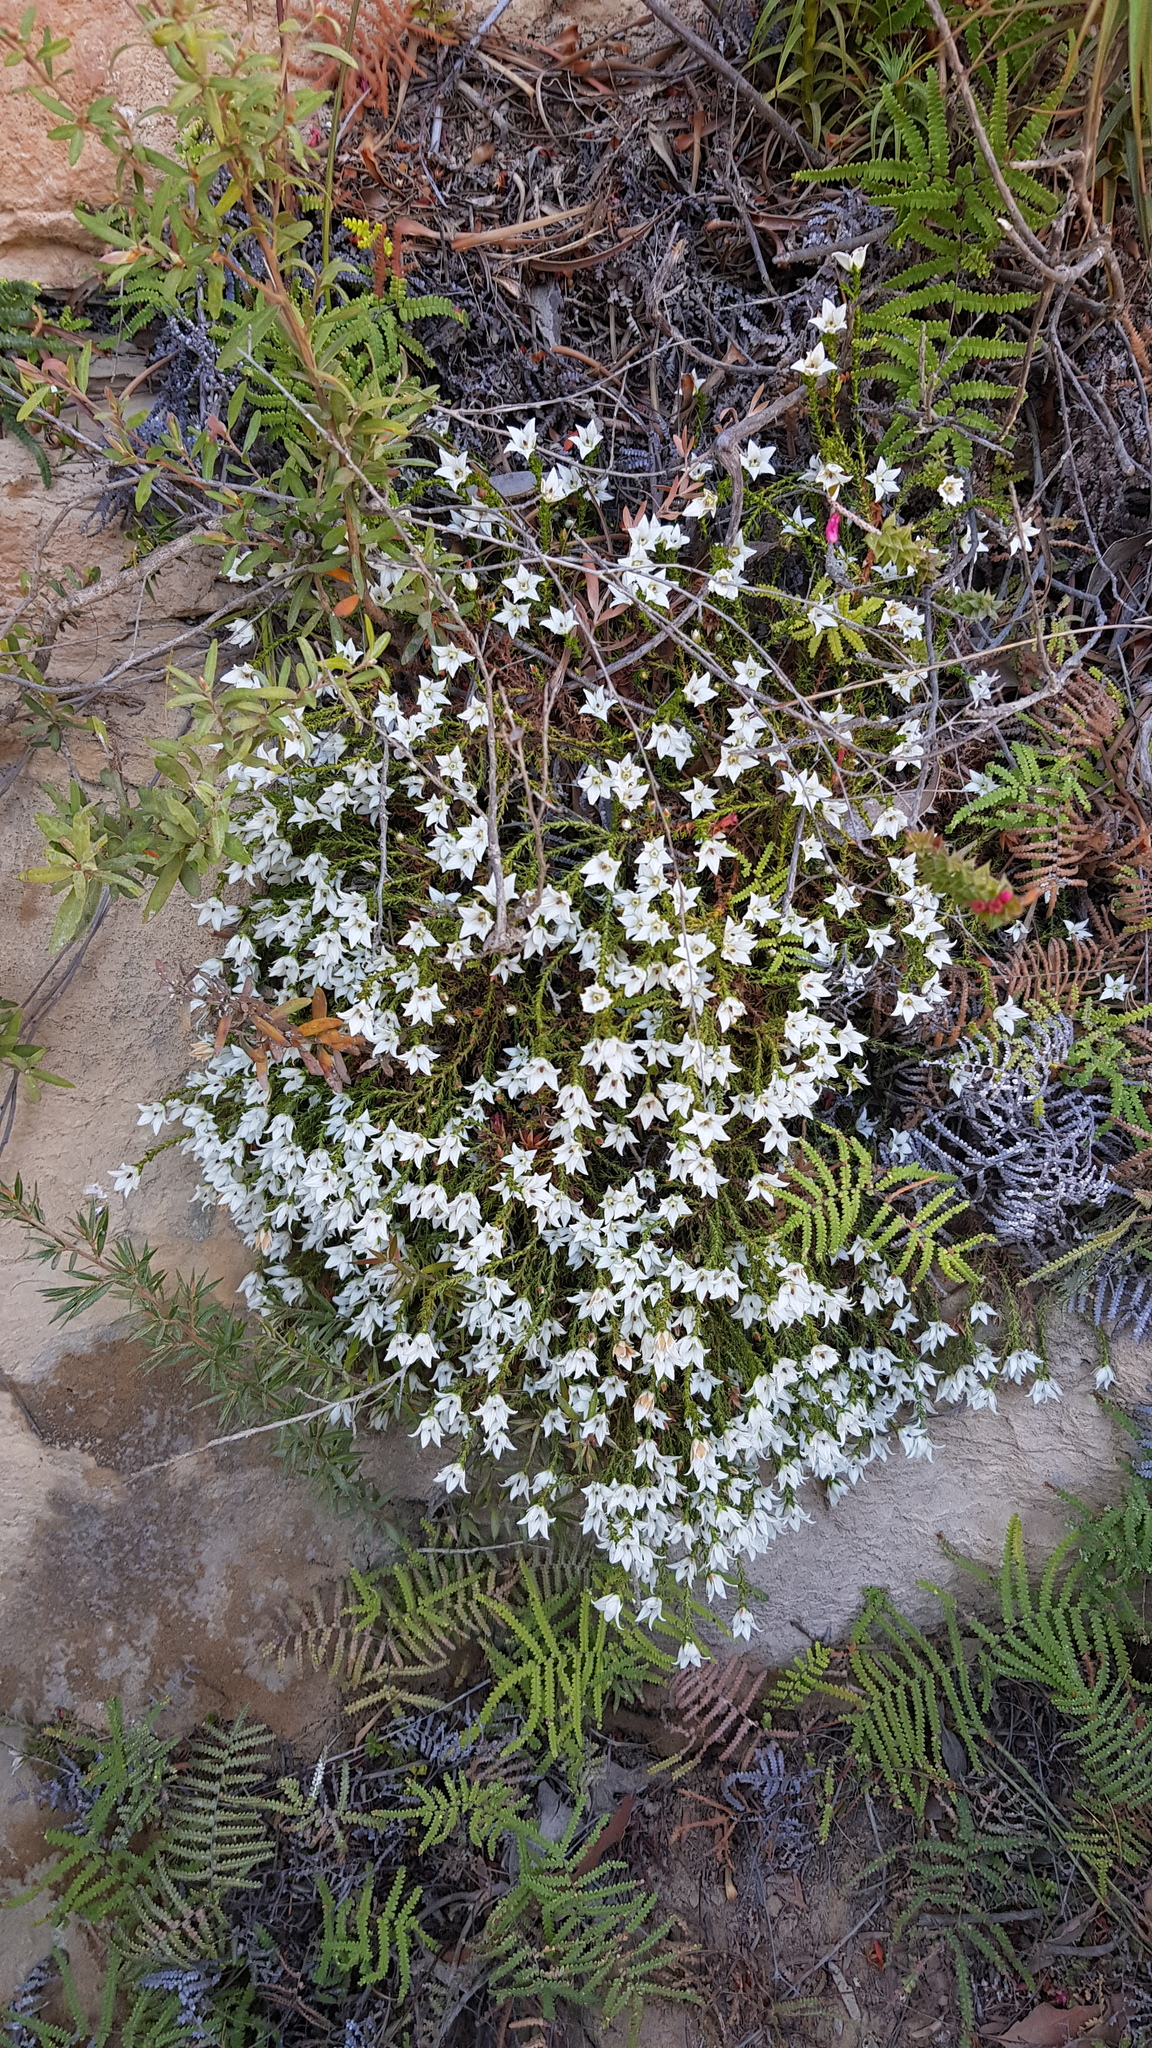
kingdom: Plantae
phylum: Tracheophyta
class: Magnoliopsida
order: Ericales
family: Ericaceae
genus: Sprengelia
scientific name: Sprengelia monticola
